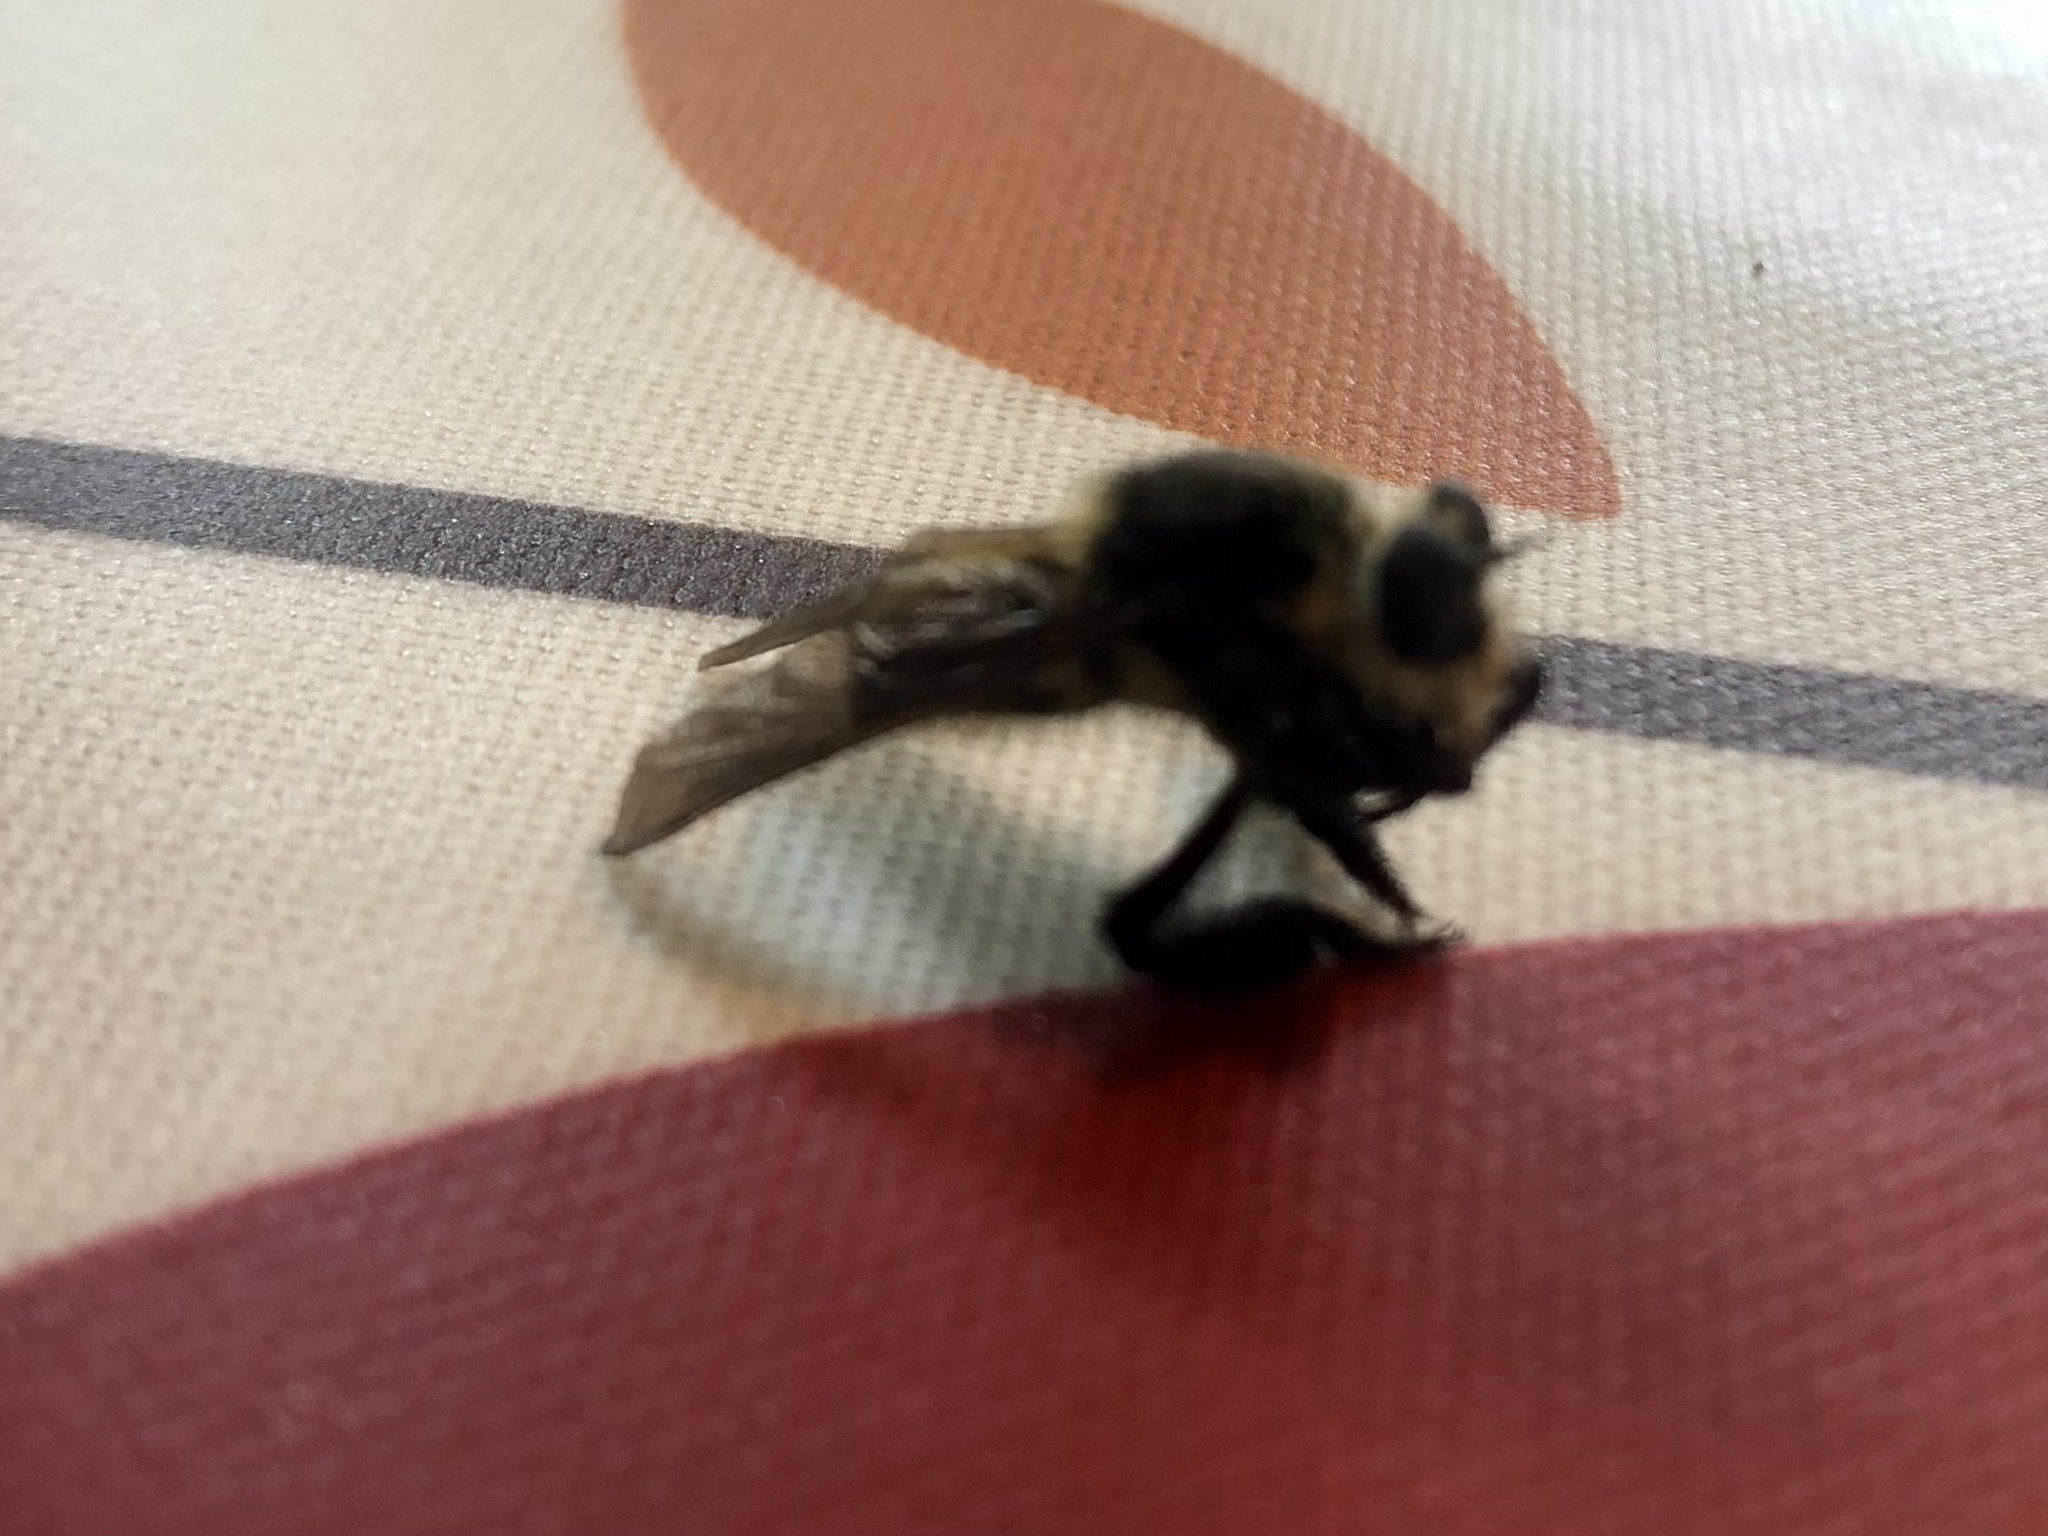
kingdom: Animalia
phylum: Arthropoda
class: Insecta
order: Diptera
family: Asilidae
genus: Mallophora
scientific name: Mallophora fautrix
